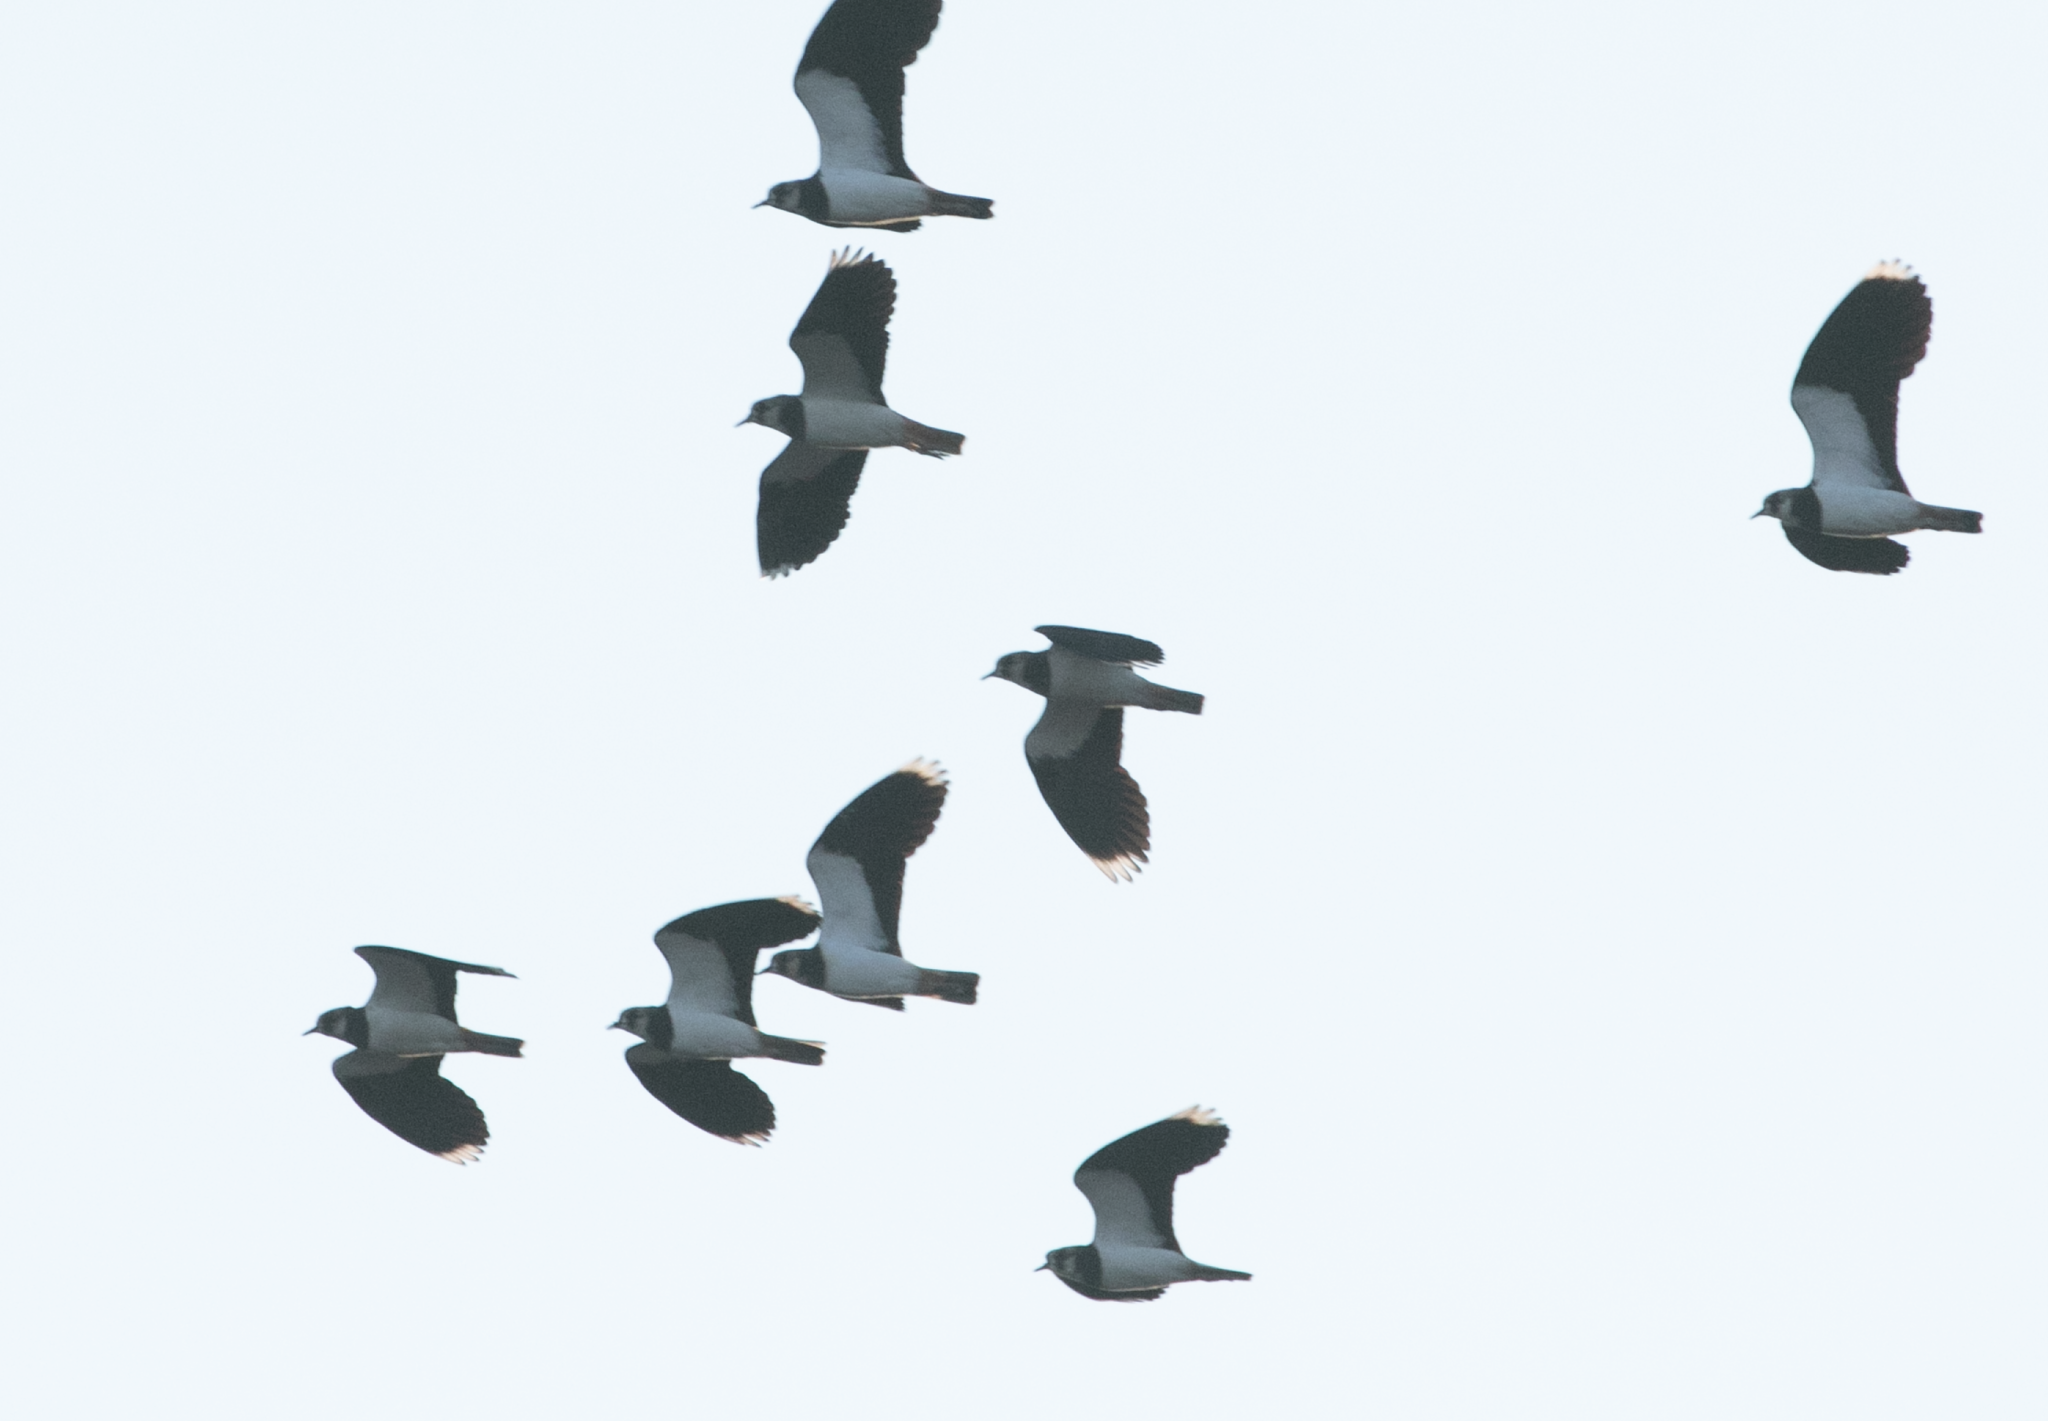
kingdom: Animalia
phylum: Chordata
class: Aves
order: Charadriiformes
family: Charadriidae
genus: Vanellus
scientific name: Vanellus vanellus
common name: Northern lapwing
